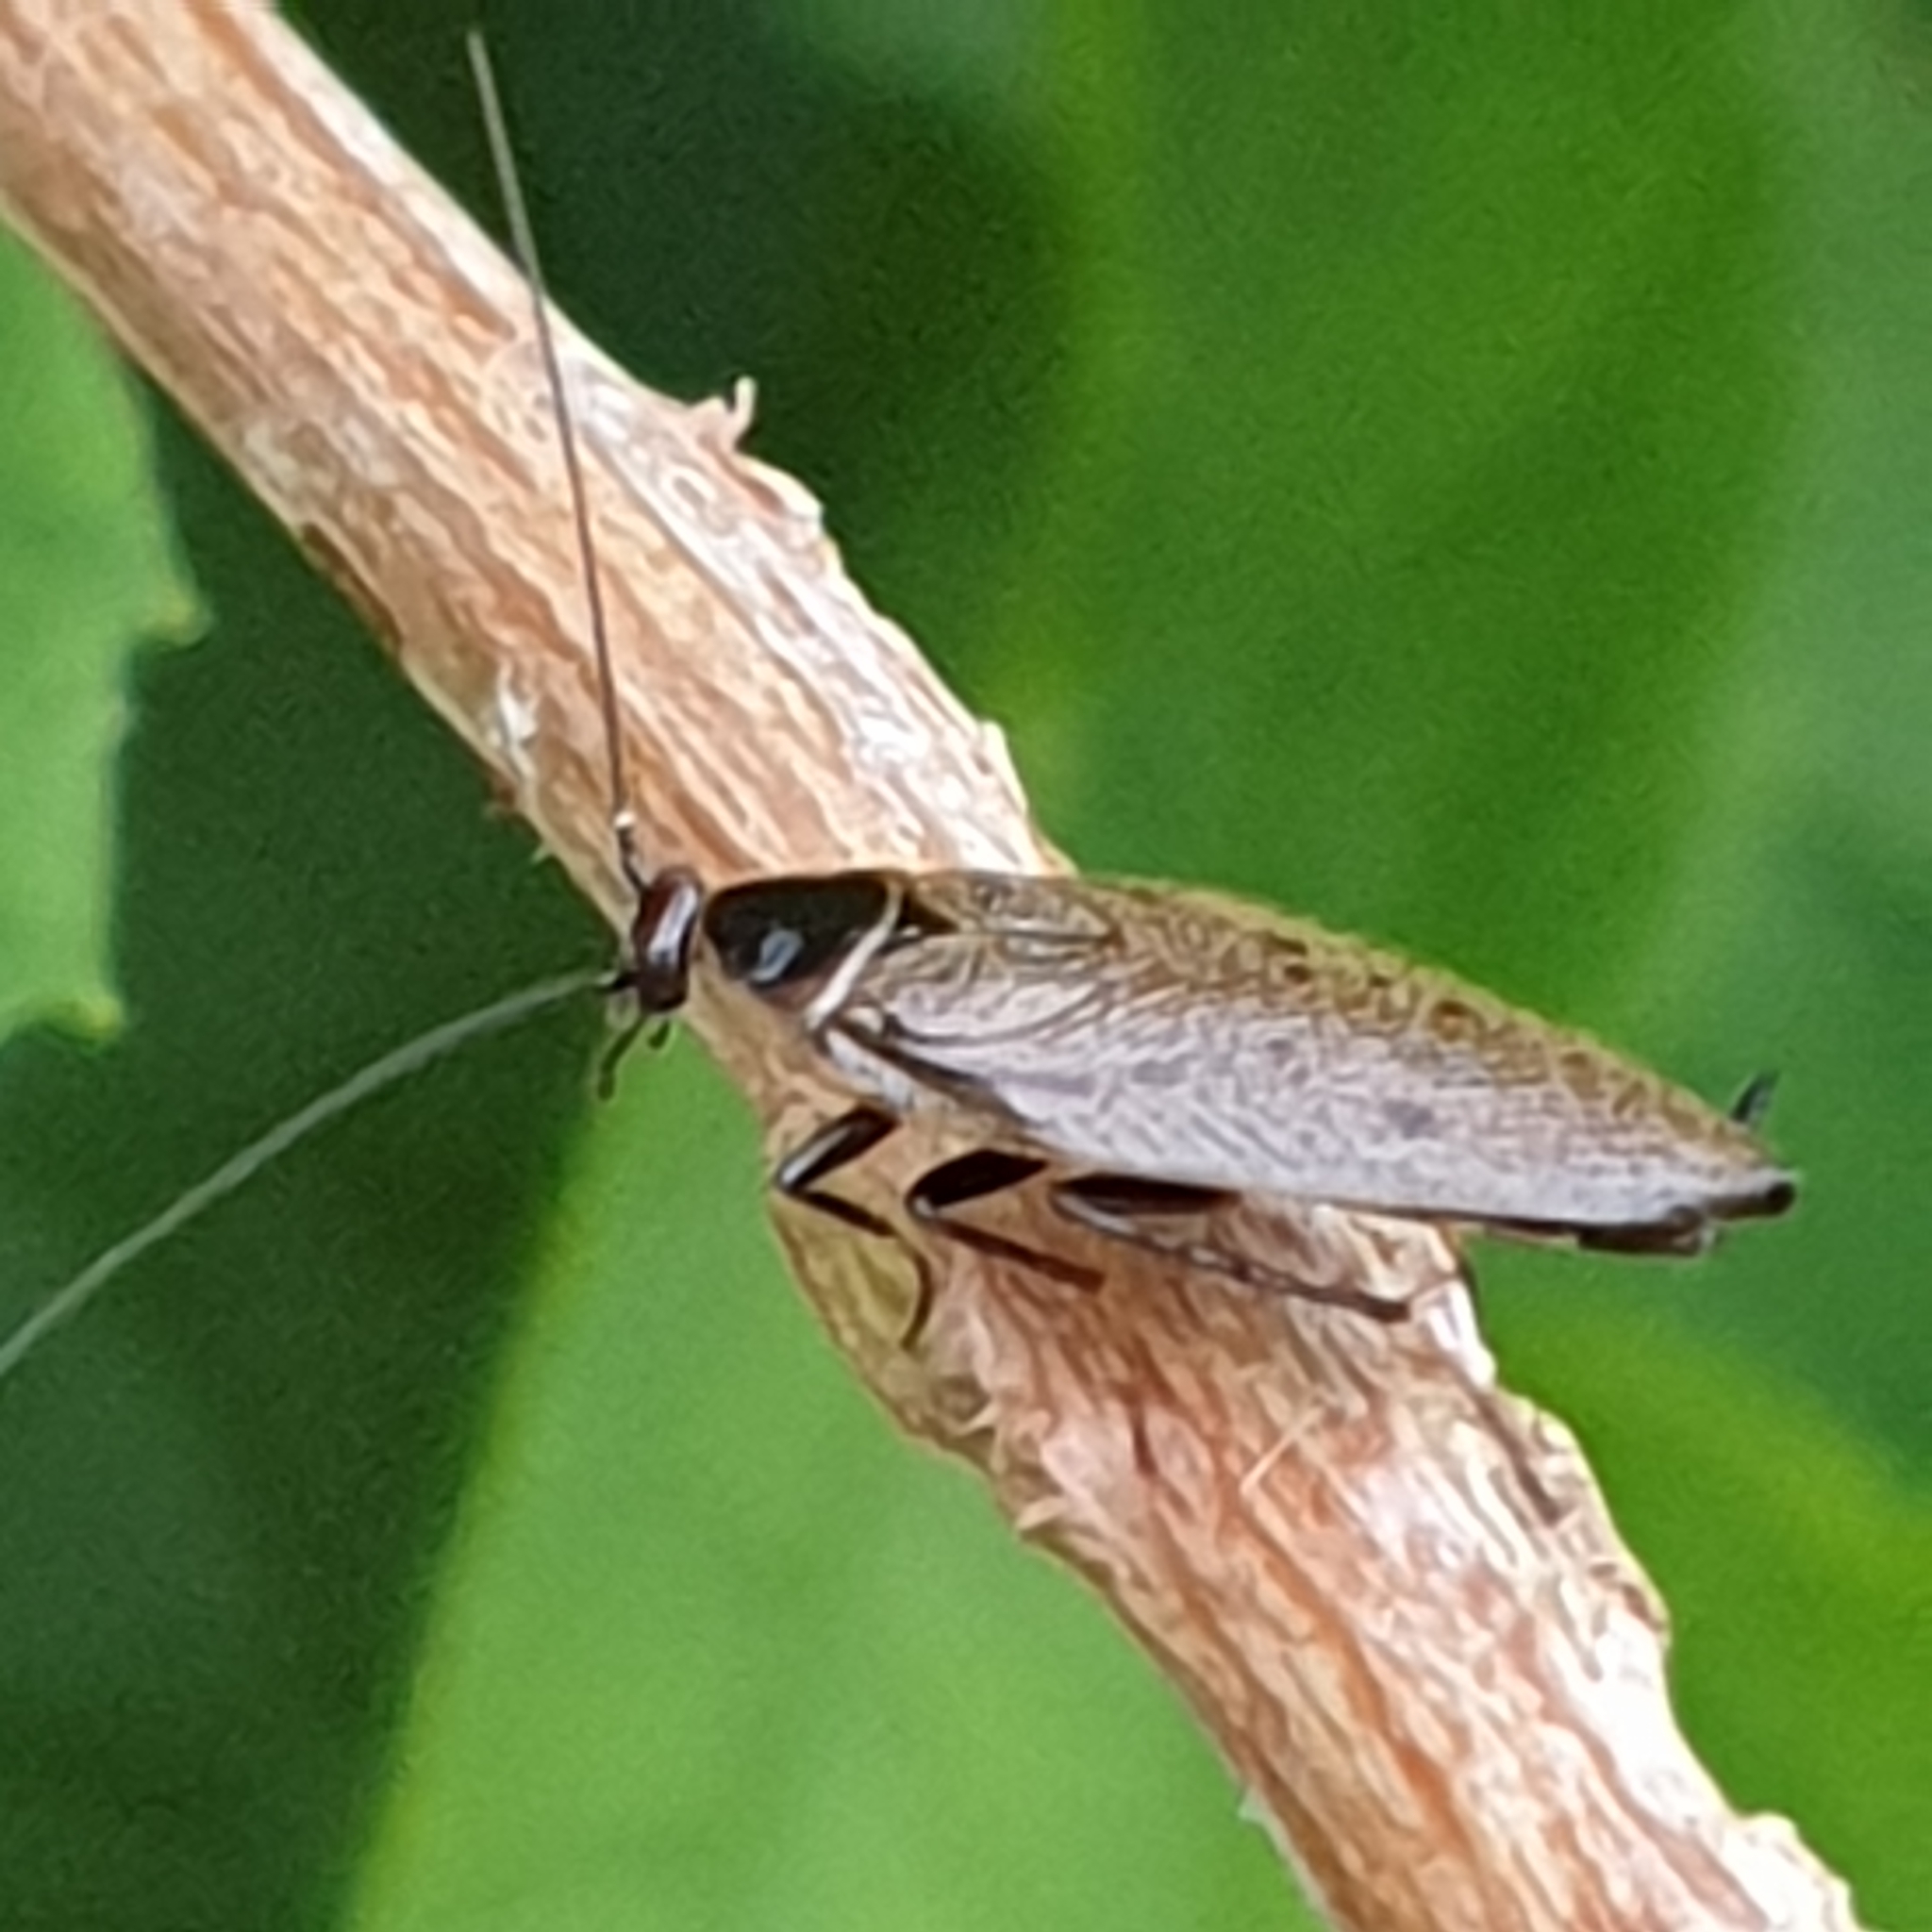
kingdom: Animalia
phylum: Arthropoda
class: Insecta
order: Blattodea
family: Ectobiidae
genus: Ectobius
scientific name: Ectobius lapponicus
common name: Dusky cockroach
